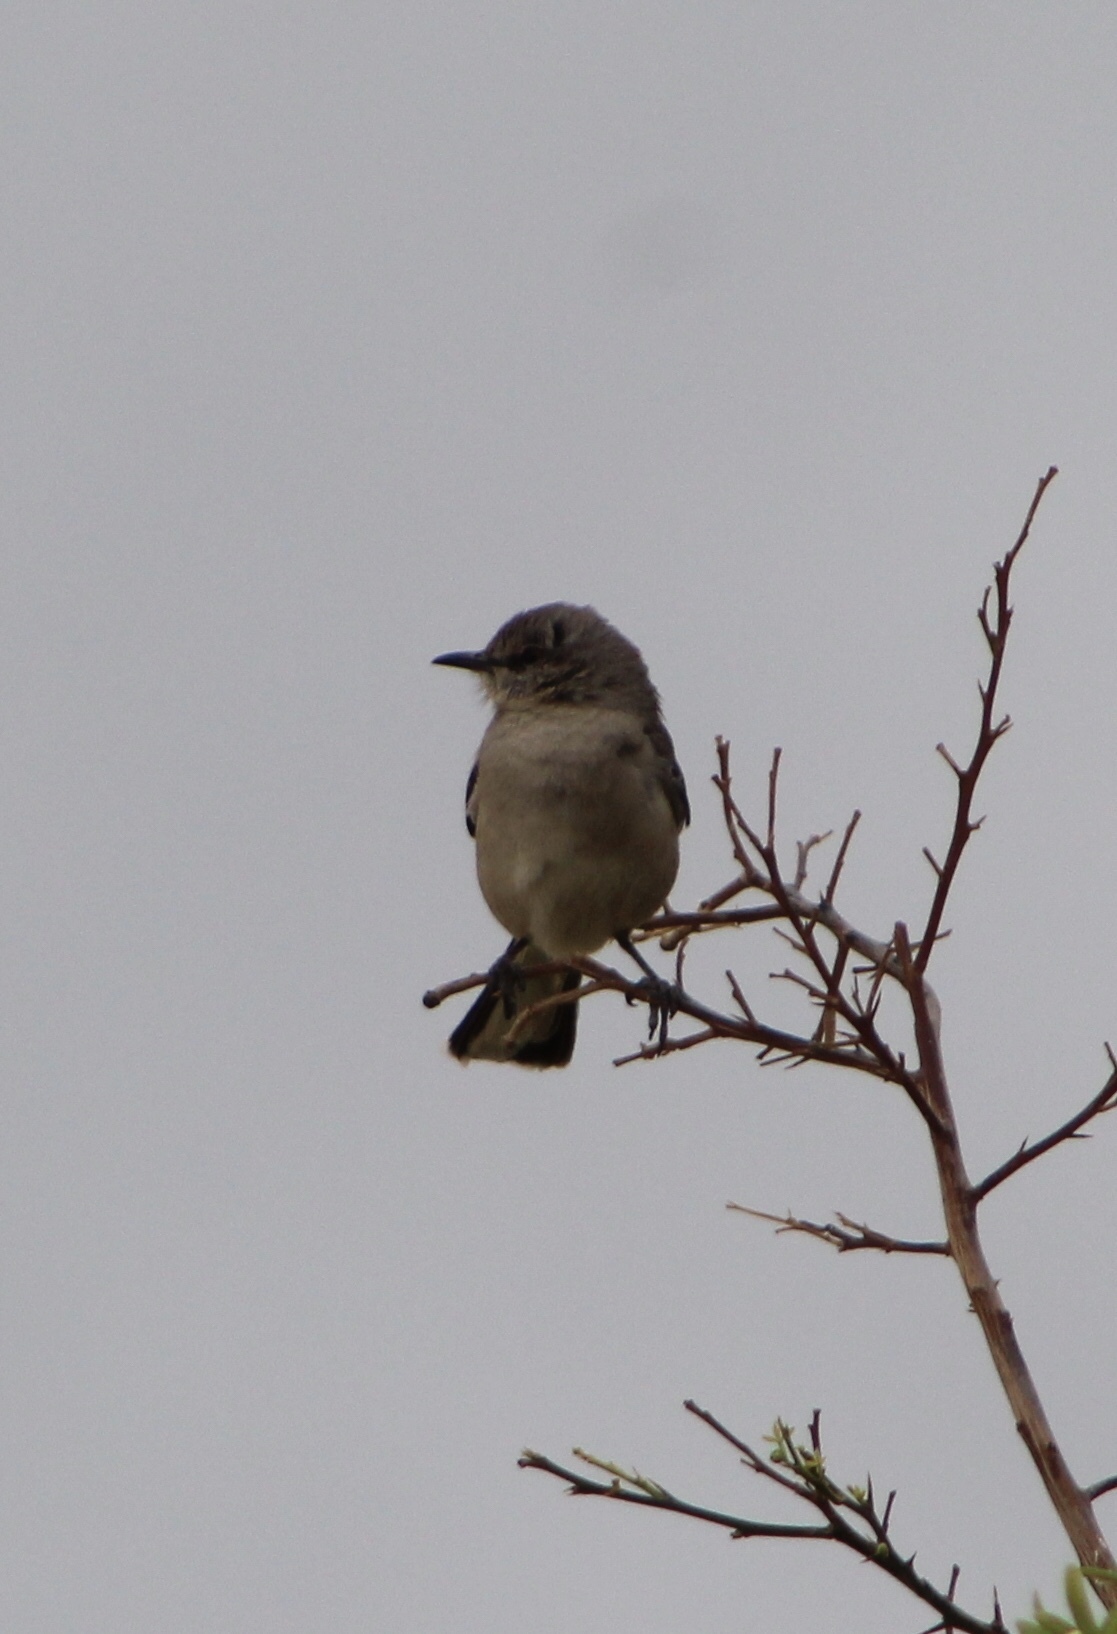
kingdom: Animalia
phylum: Chordata
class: Aves
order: Passeriformes
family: Mimidae
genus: Mimus
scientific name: Mimus polyglottos
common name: Northern mockingbird
